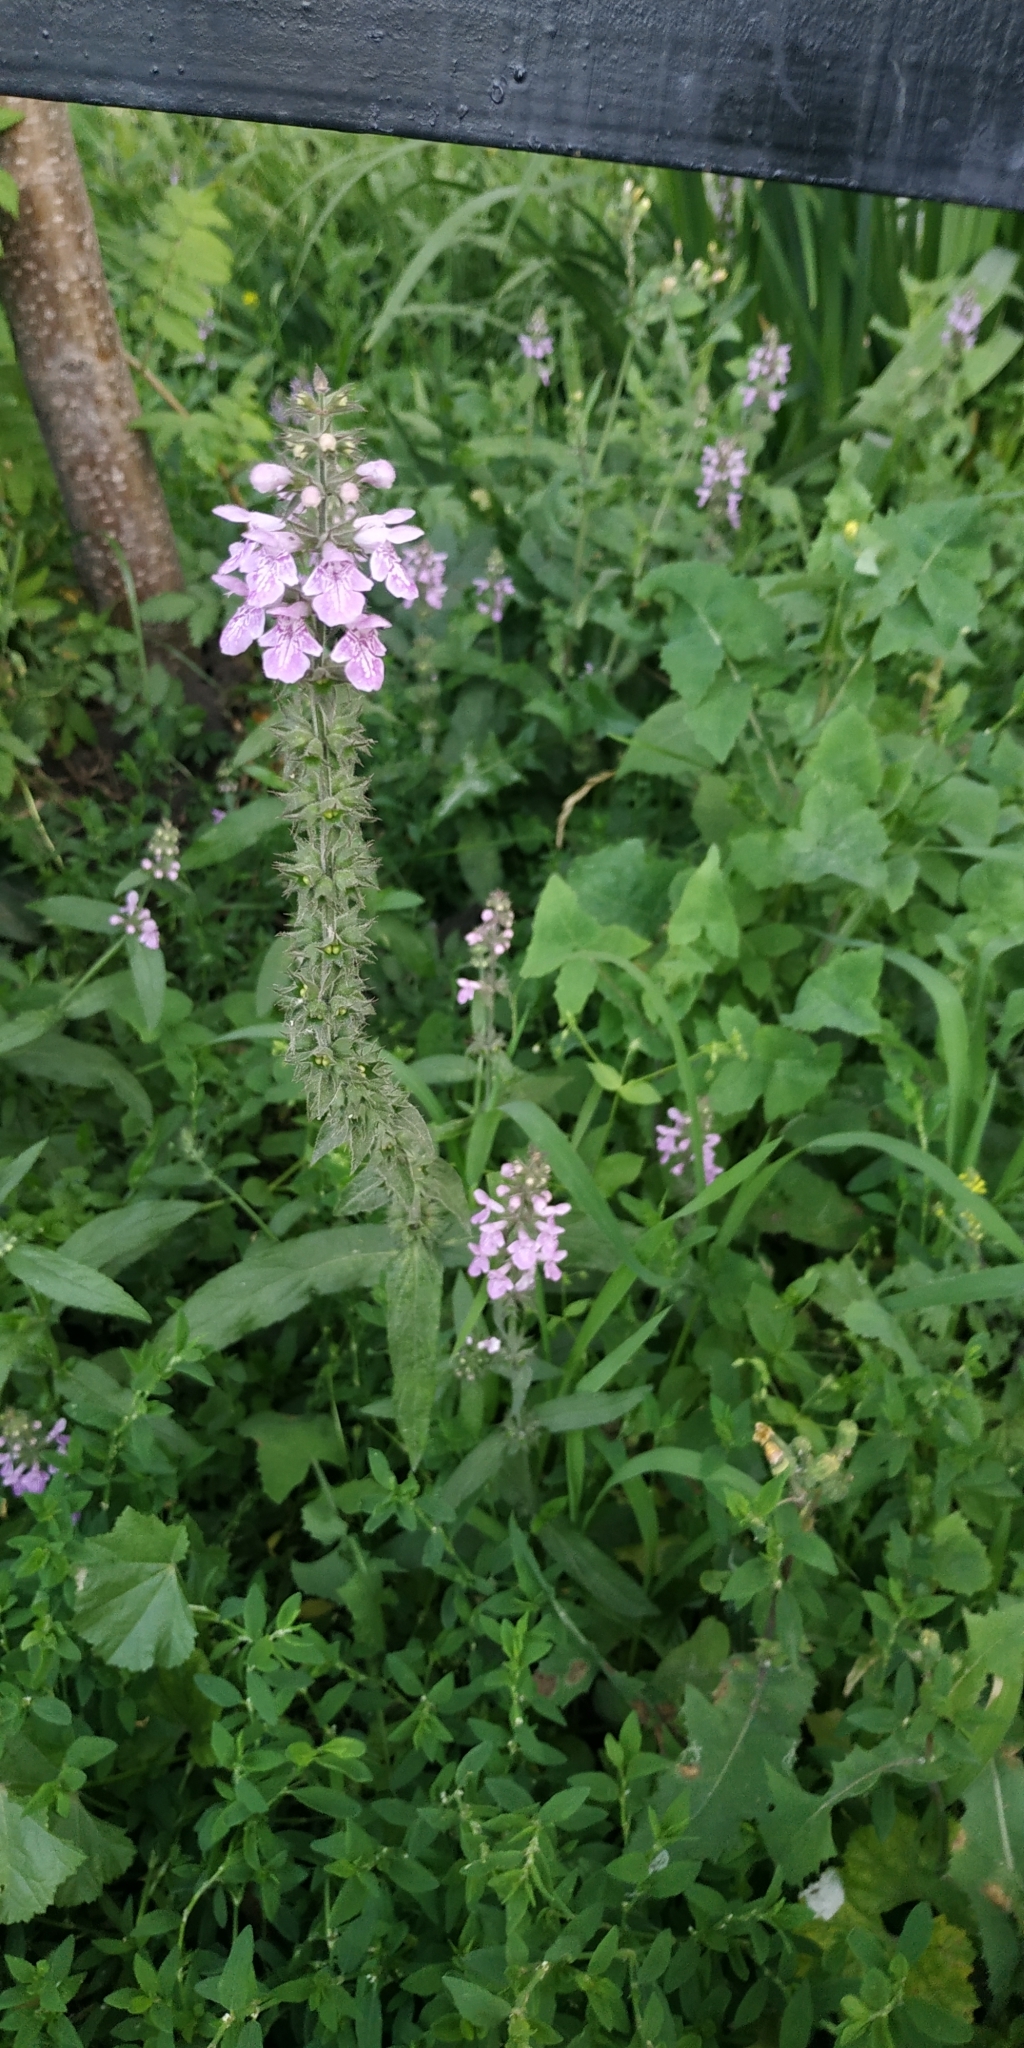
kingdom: Plantae
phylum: Tracheophyta
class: Magnoliopsida
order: Lamiales
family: Lamiaceae
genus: Stachys
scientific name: Stachys palustris
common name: Marsh woundwort
